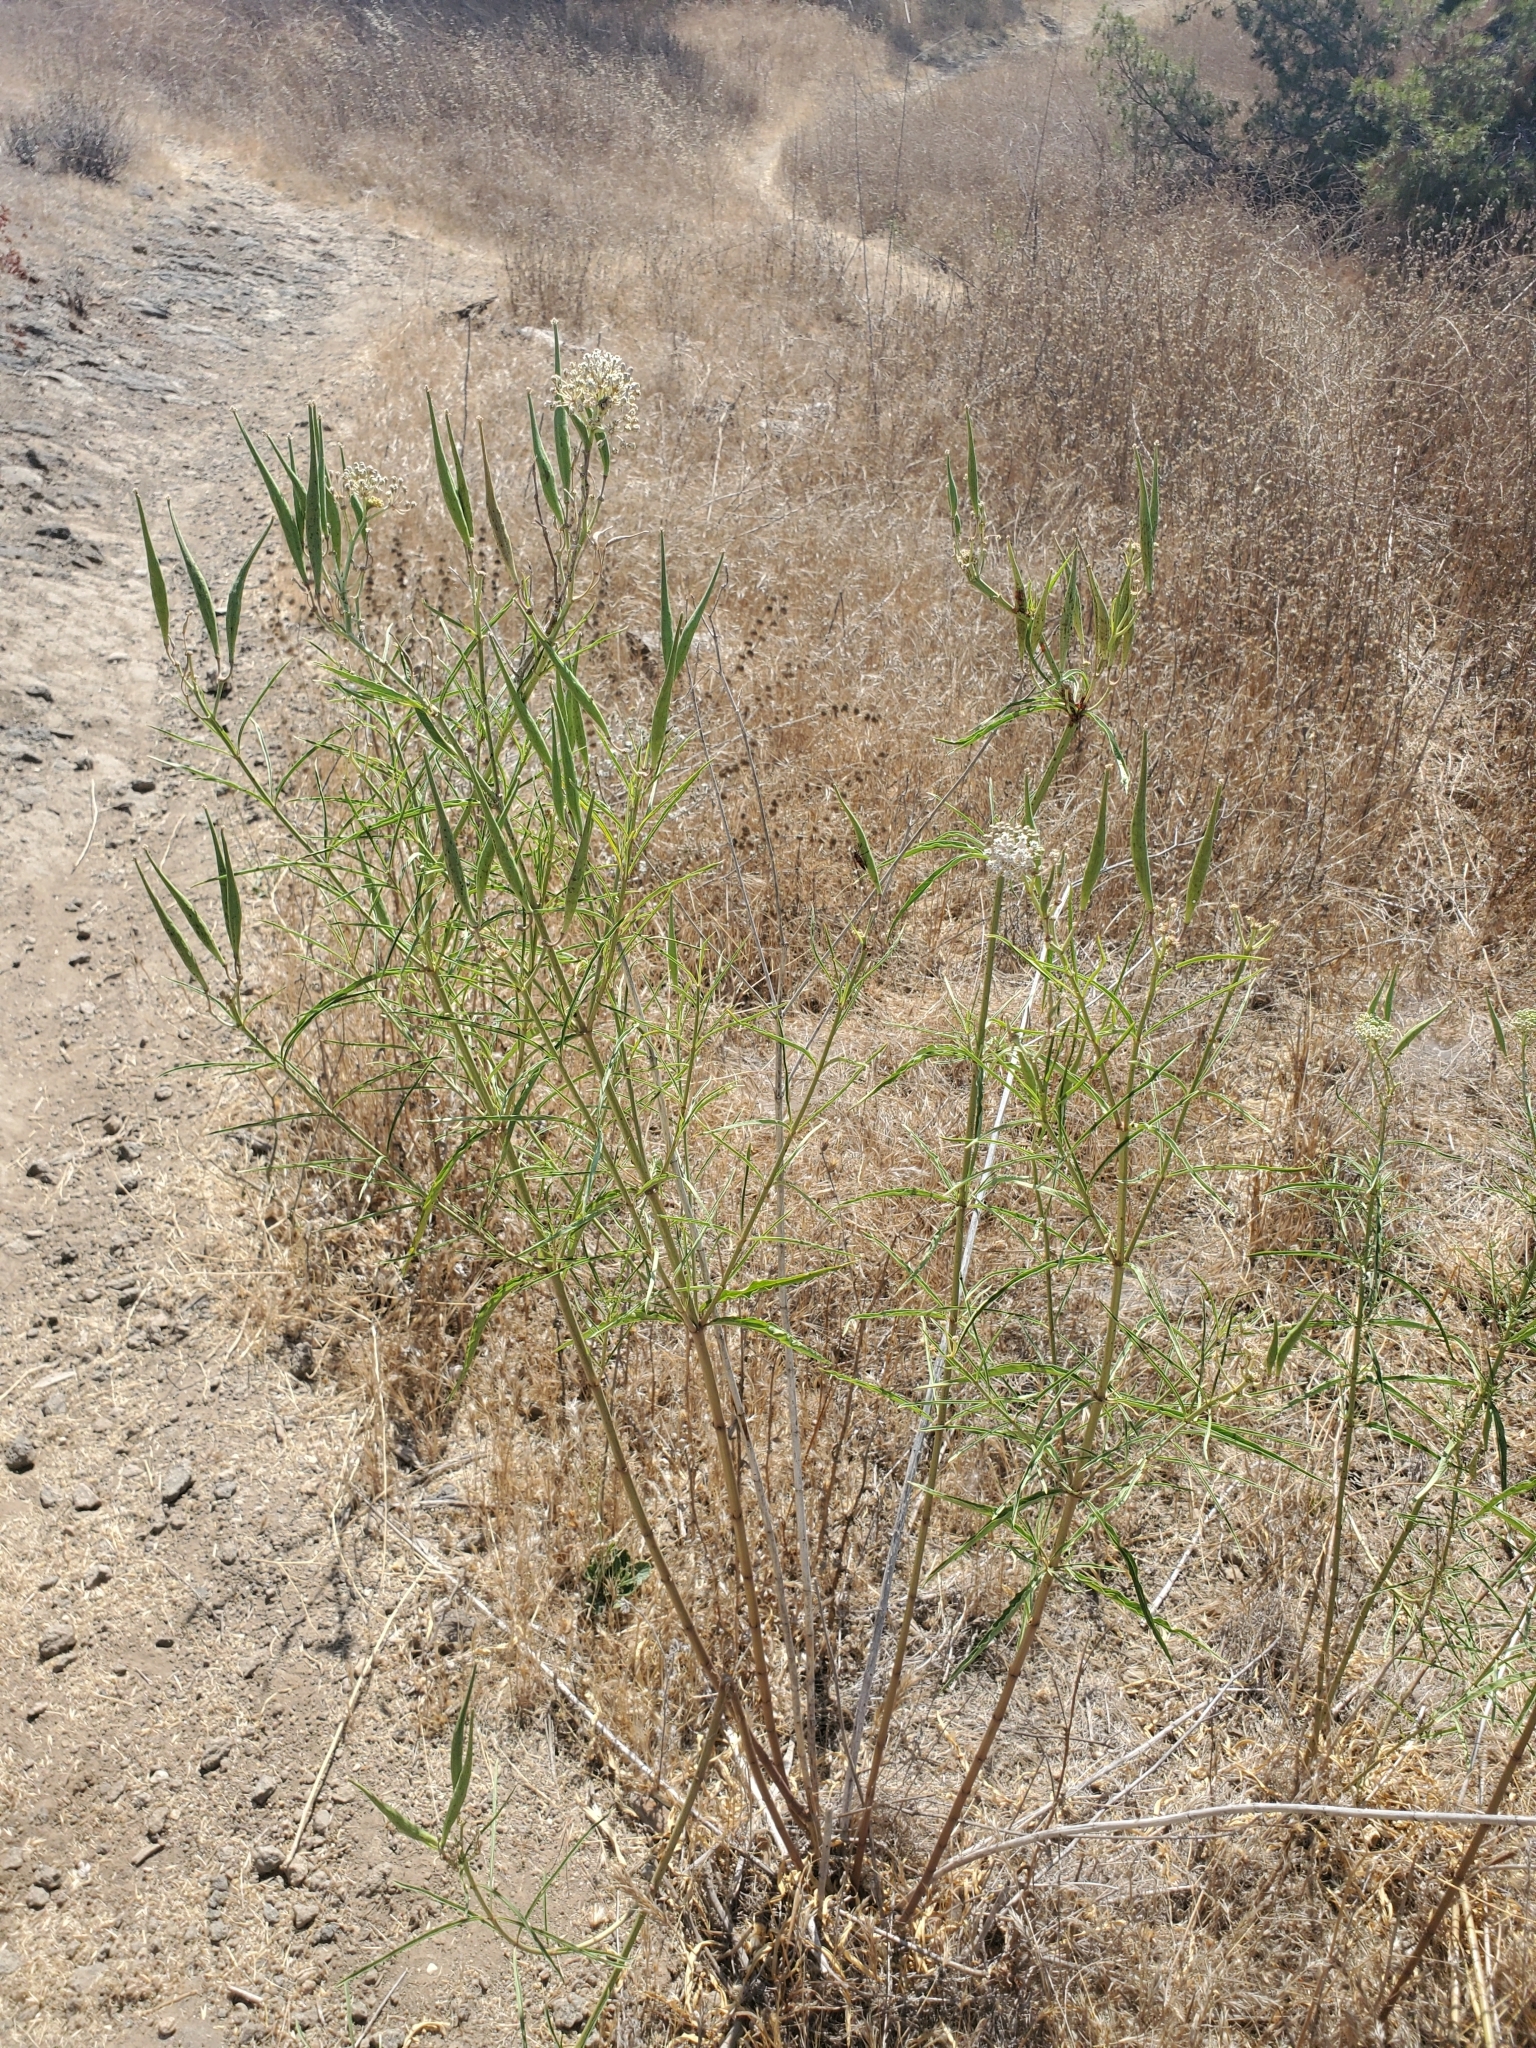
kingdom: Plantae
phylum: Tracheophyta
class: Magnoliopsida
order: Gentianales
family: Apocynaceae
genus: Asclepias
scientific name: Asclepias fascicularis
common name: Mexican milkweed
